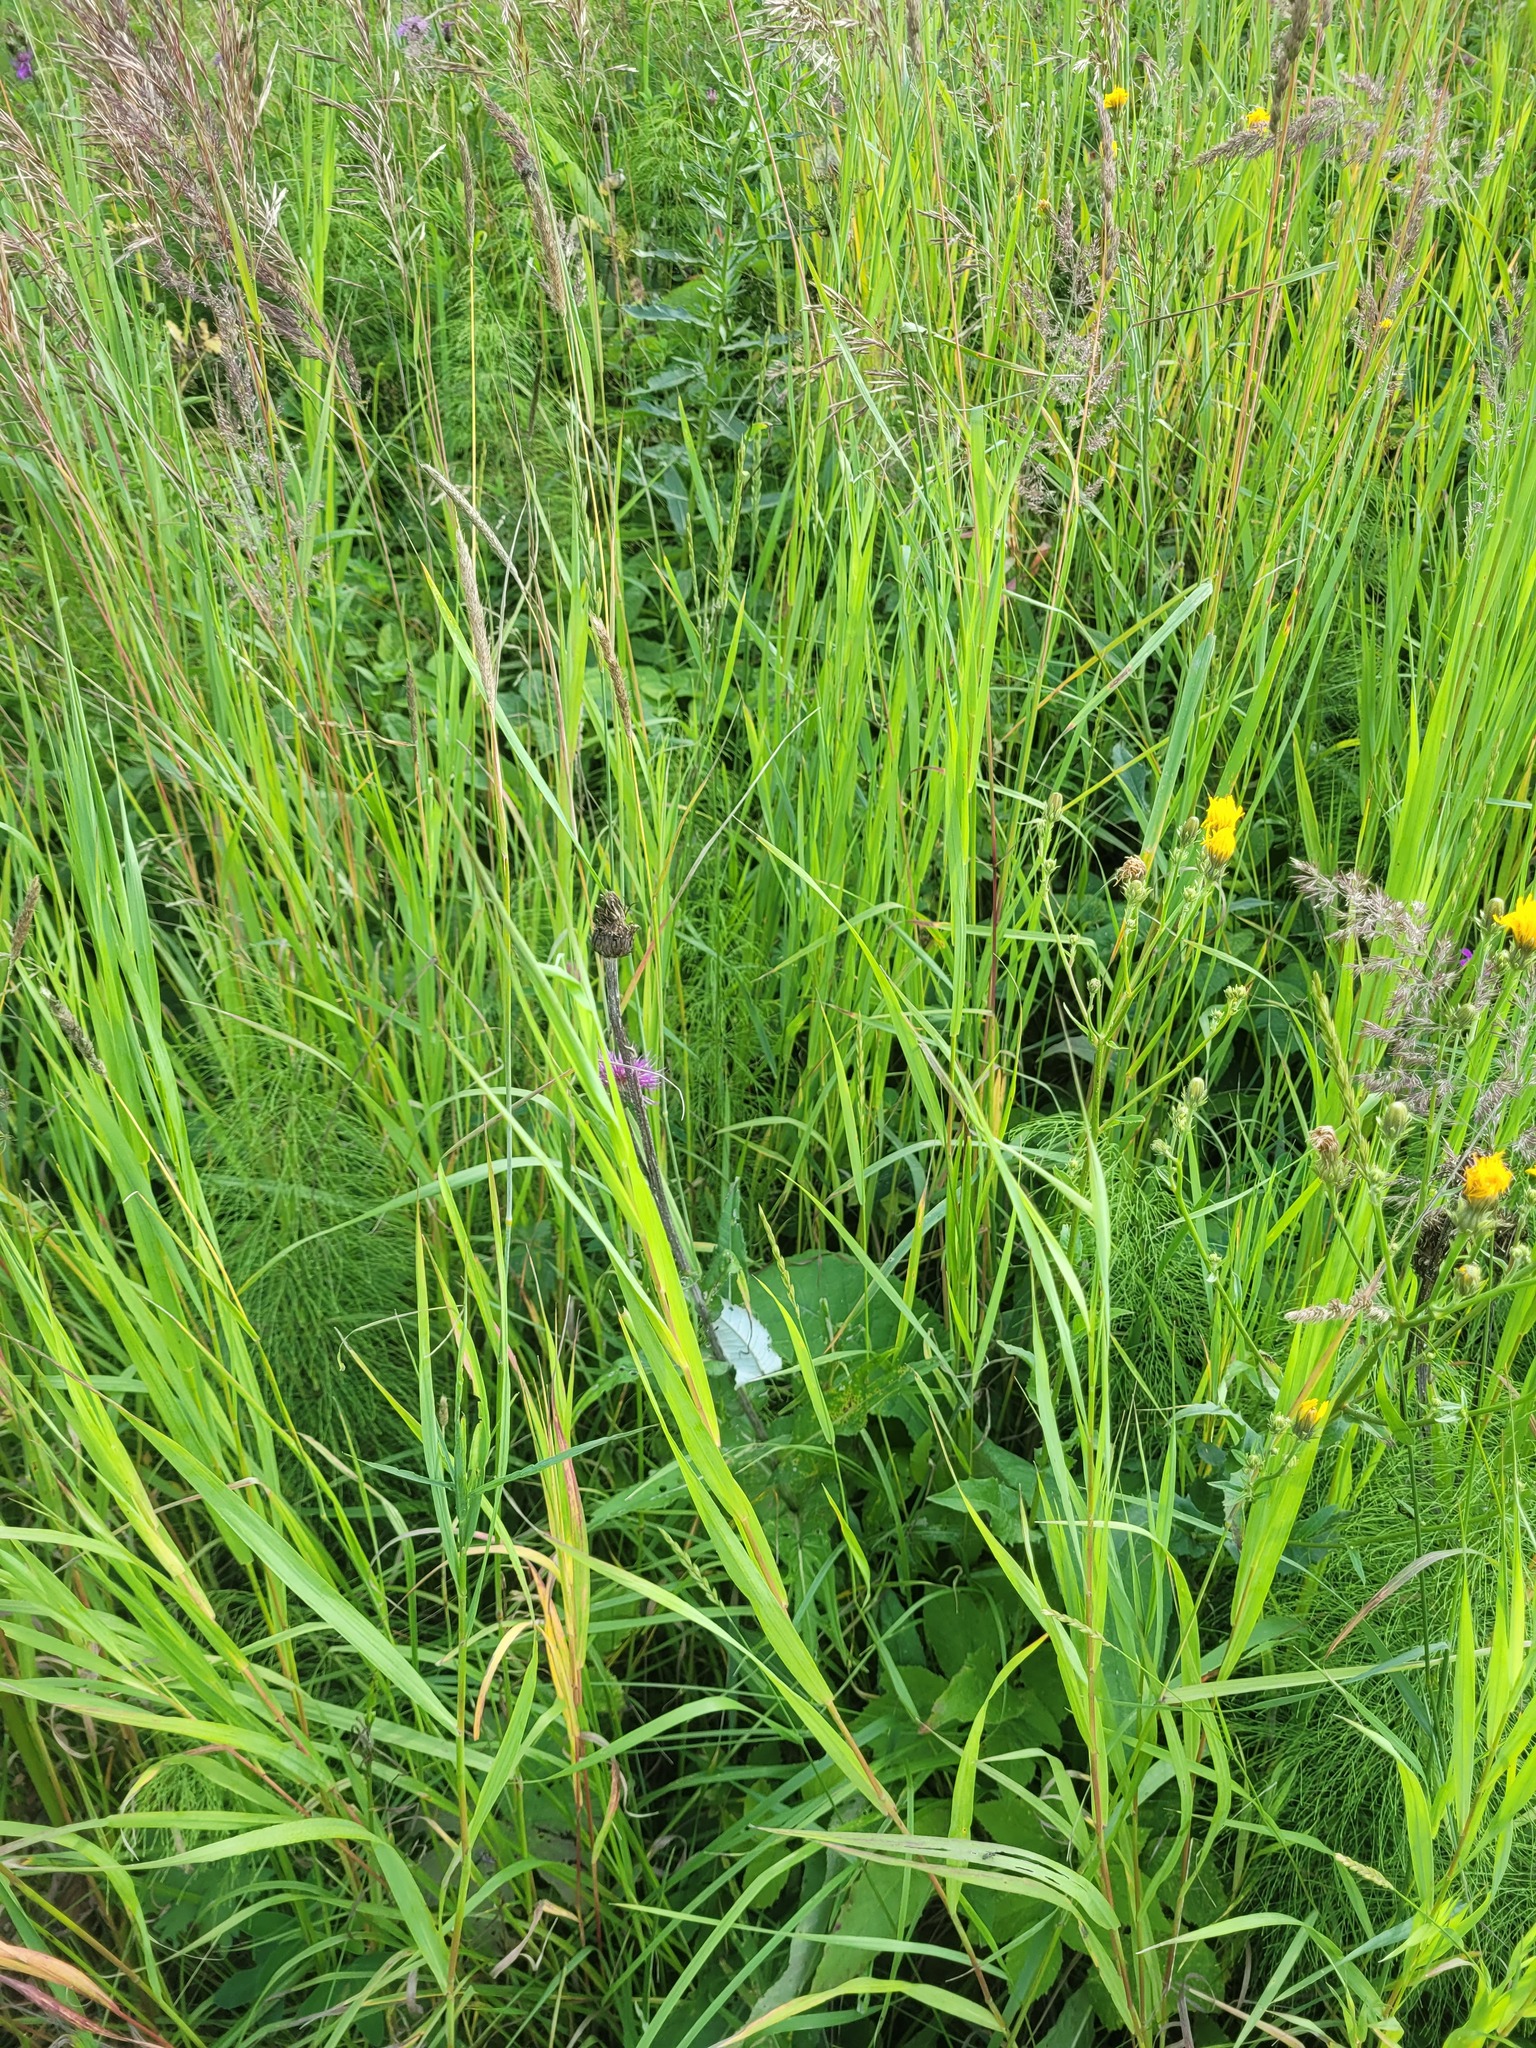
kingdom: Plantae
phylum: Tracheophyta
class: Magnoliopsida
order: Asterales
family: Asteraceae
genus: Cirsium
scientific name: Cirsium heterophyllum
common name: Melancholy thistle
